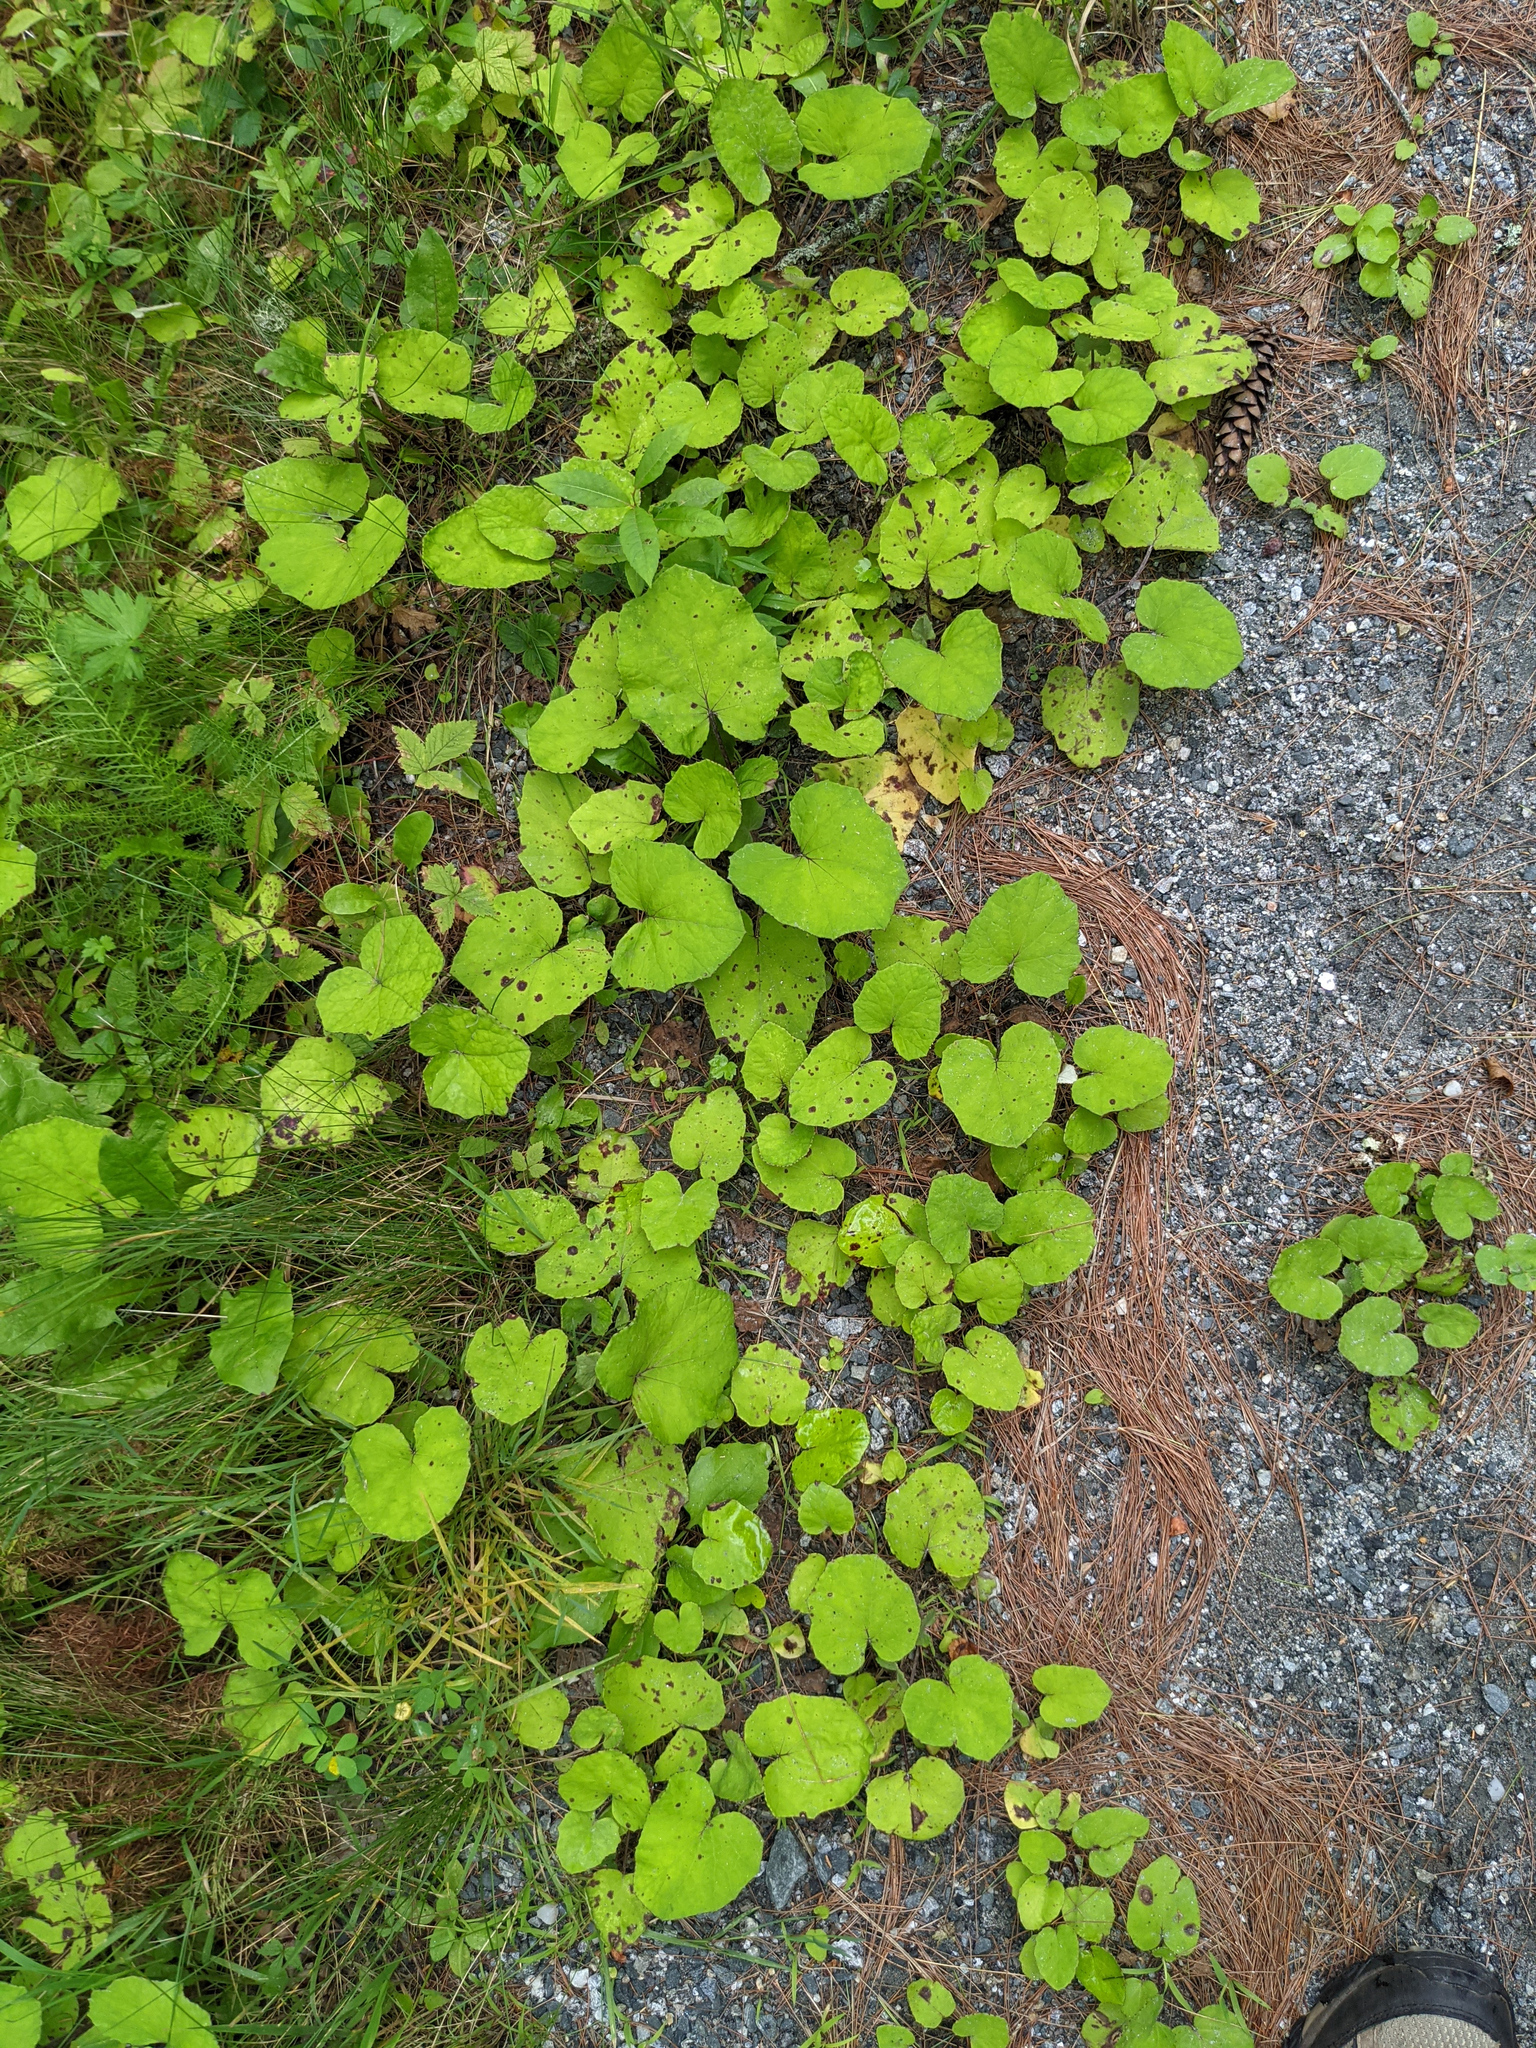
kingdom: Plantae
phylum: Tracheophyta
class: Magnoliopsida
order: Asterales
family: Asteraceae
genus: Tussilago
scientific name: Tussilago farfara
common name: Coltsfoot
